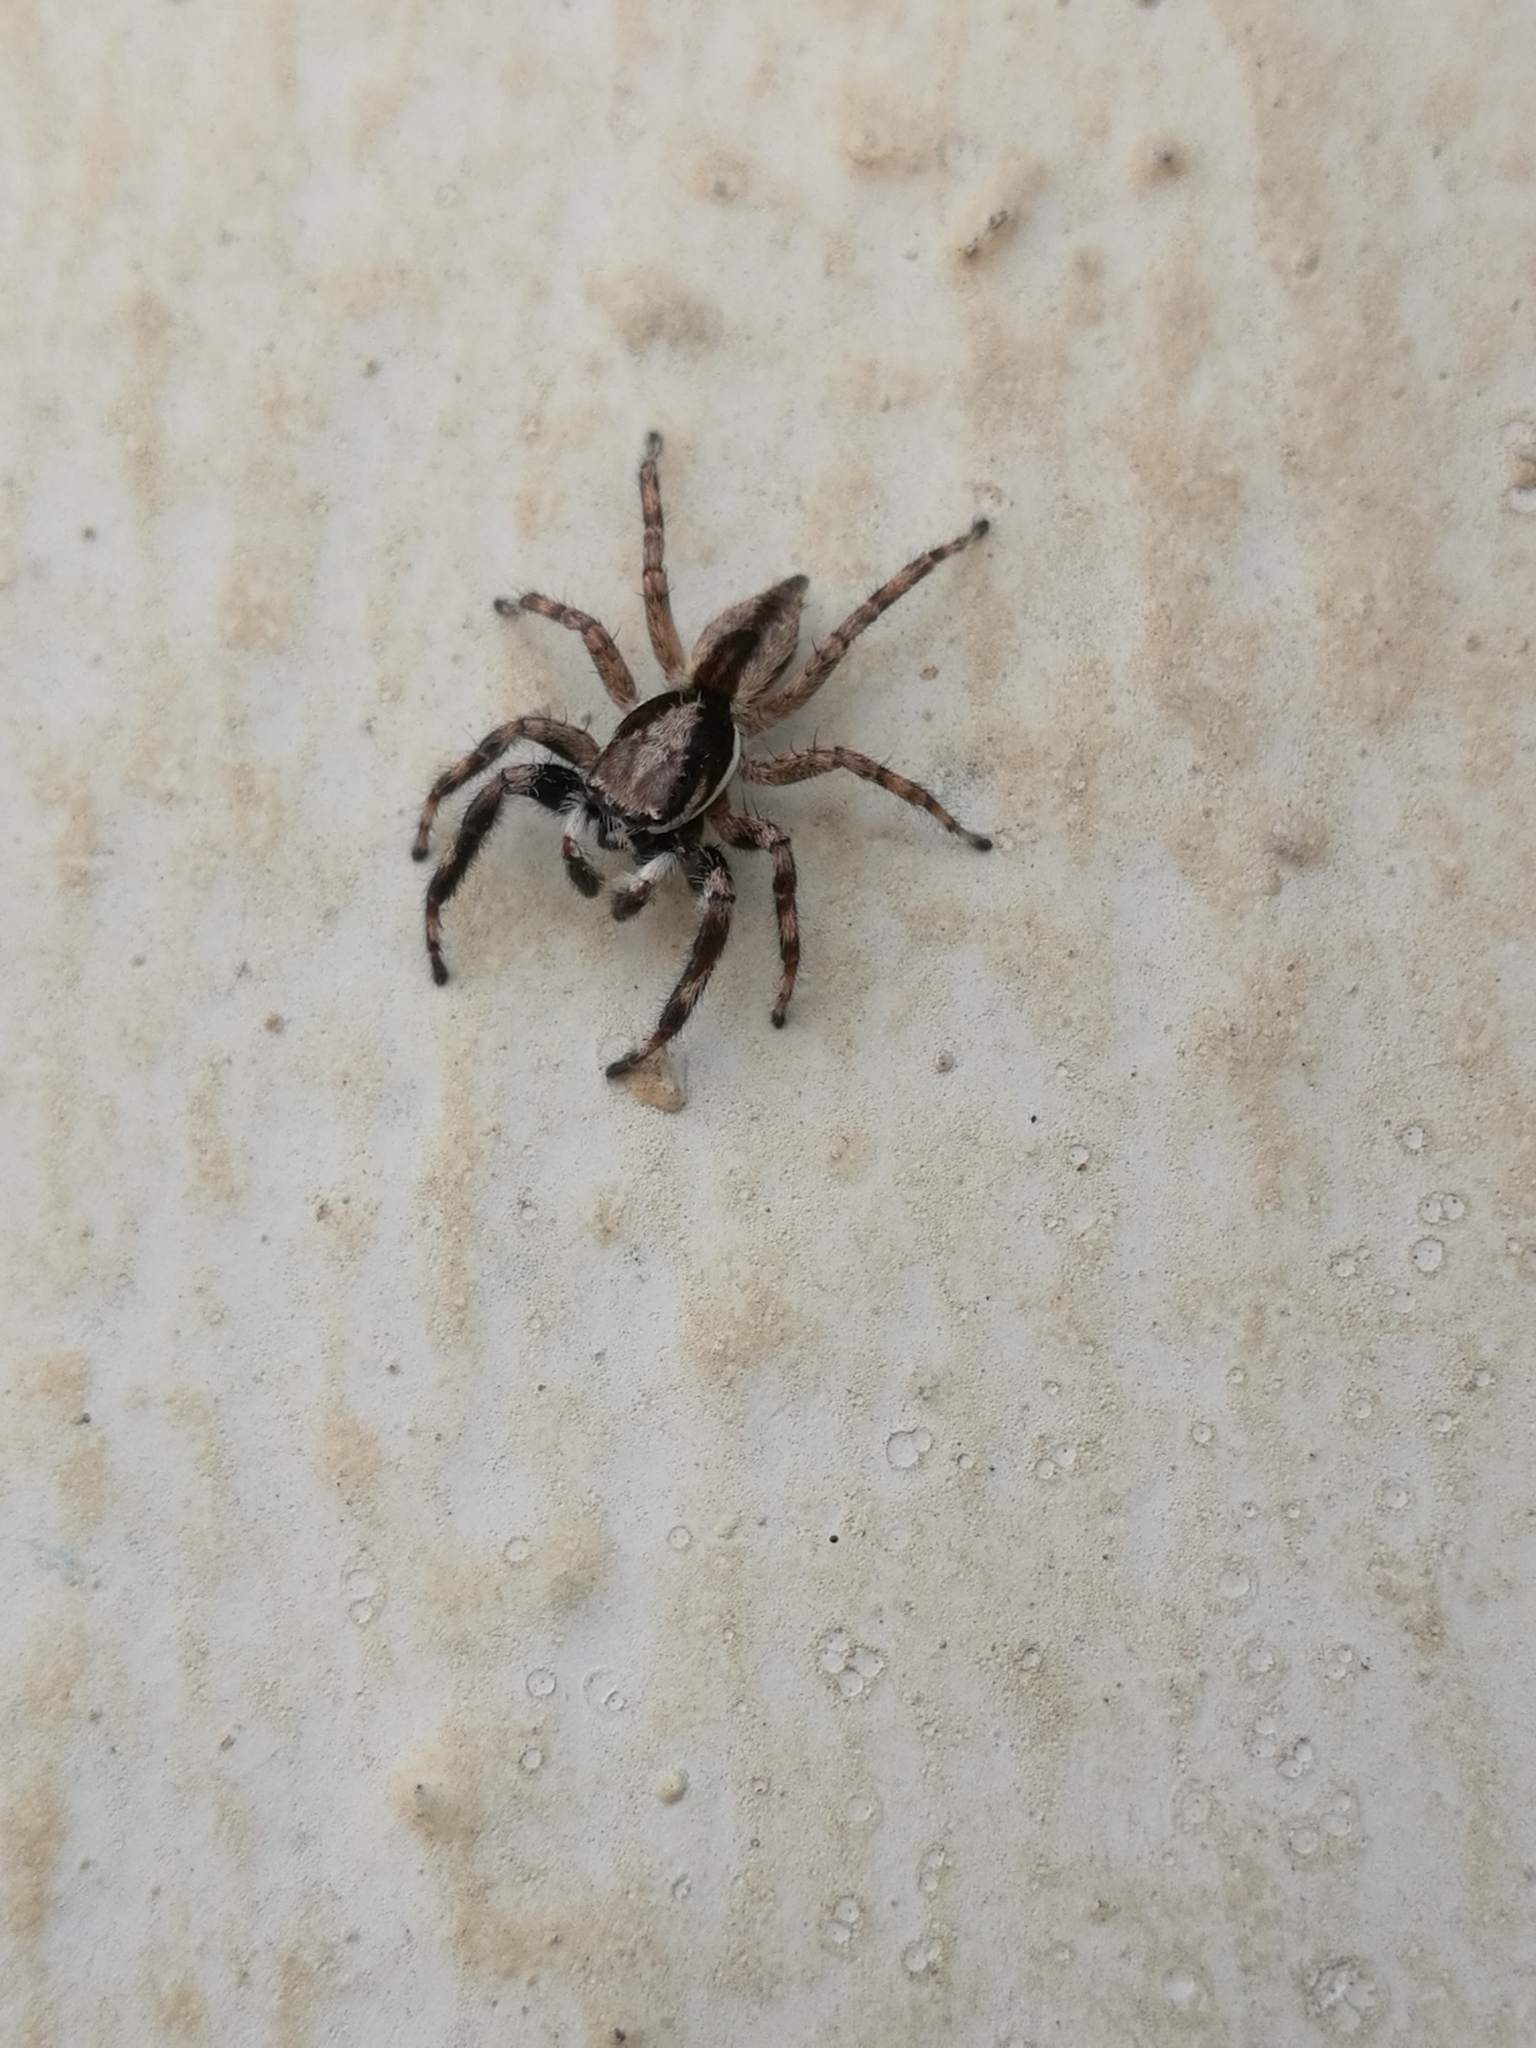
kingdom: Animalia
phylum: Arthropoda
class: Arachnida
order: Araneae
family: Salticidae
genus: Menemerus
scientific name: Menemerus bivittatus
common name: Gray wall jumper
